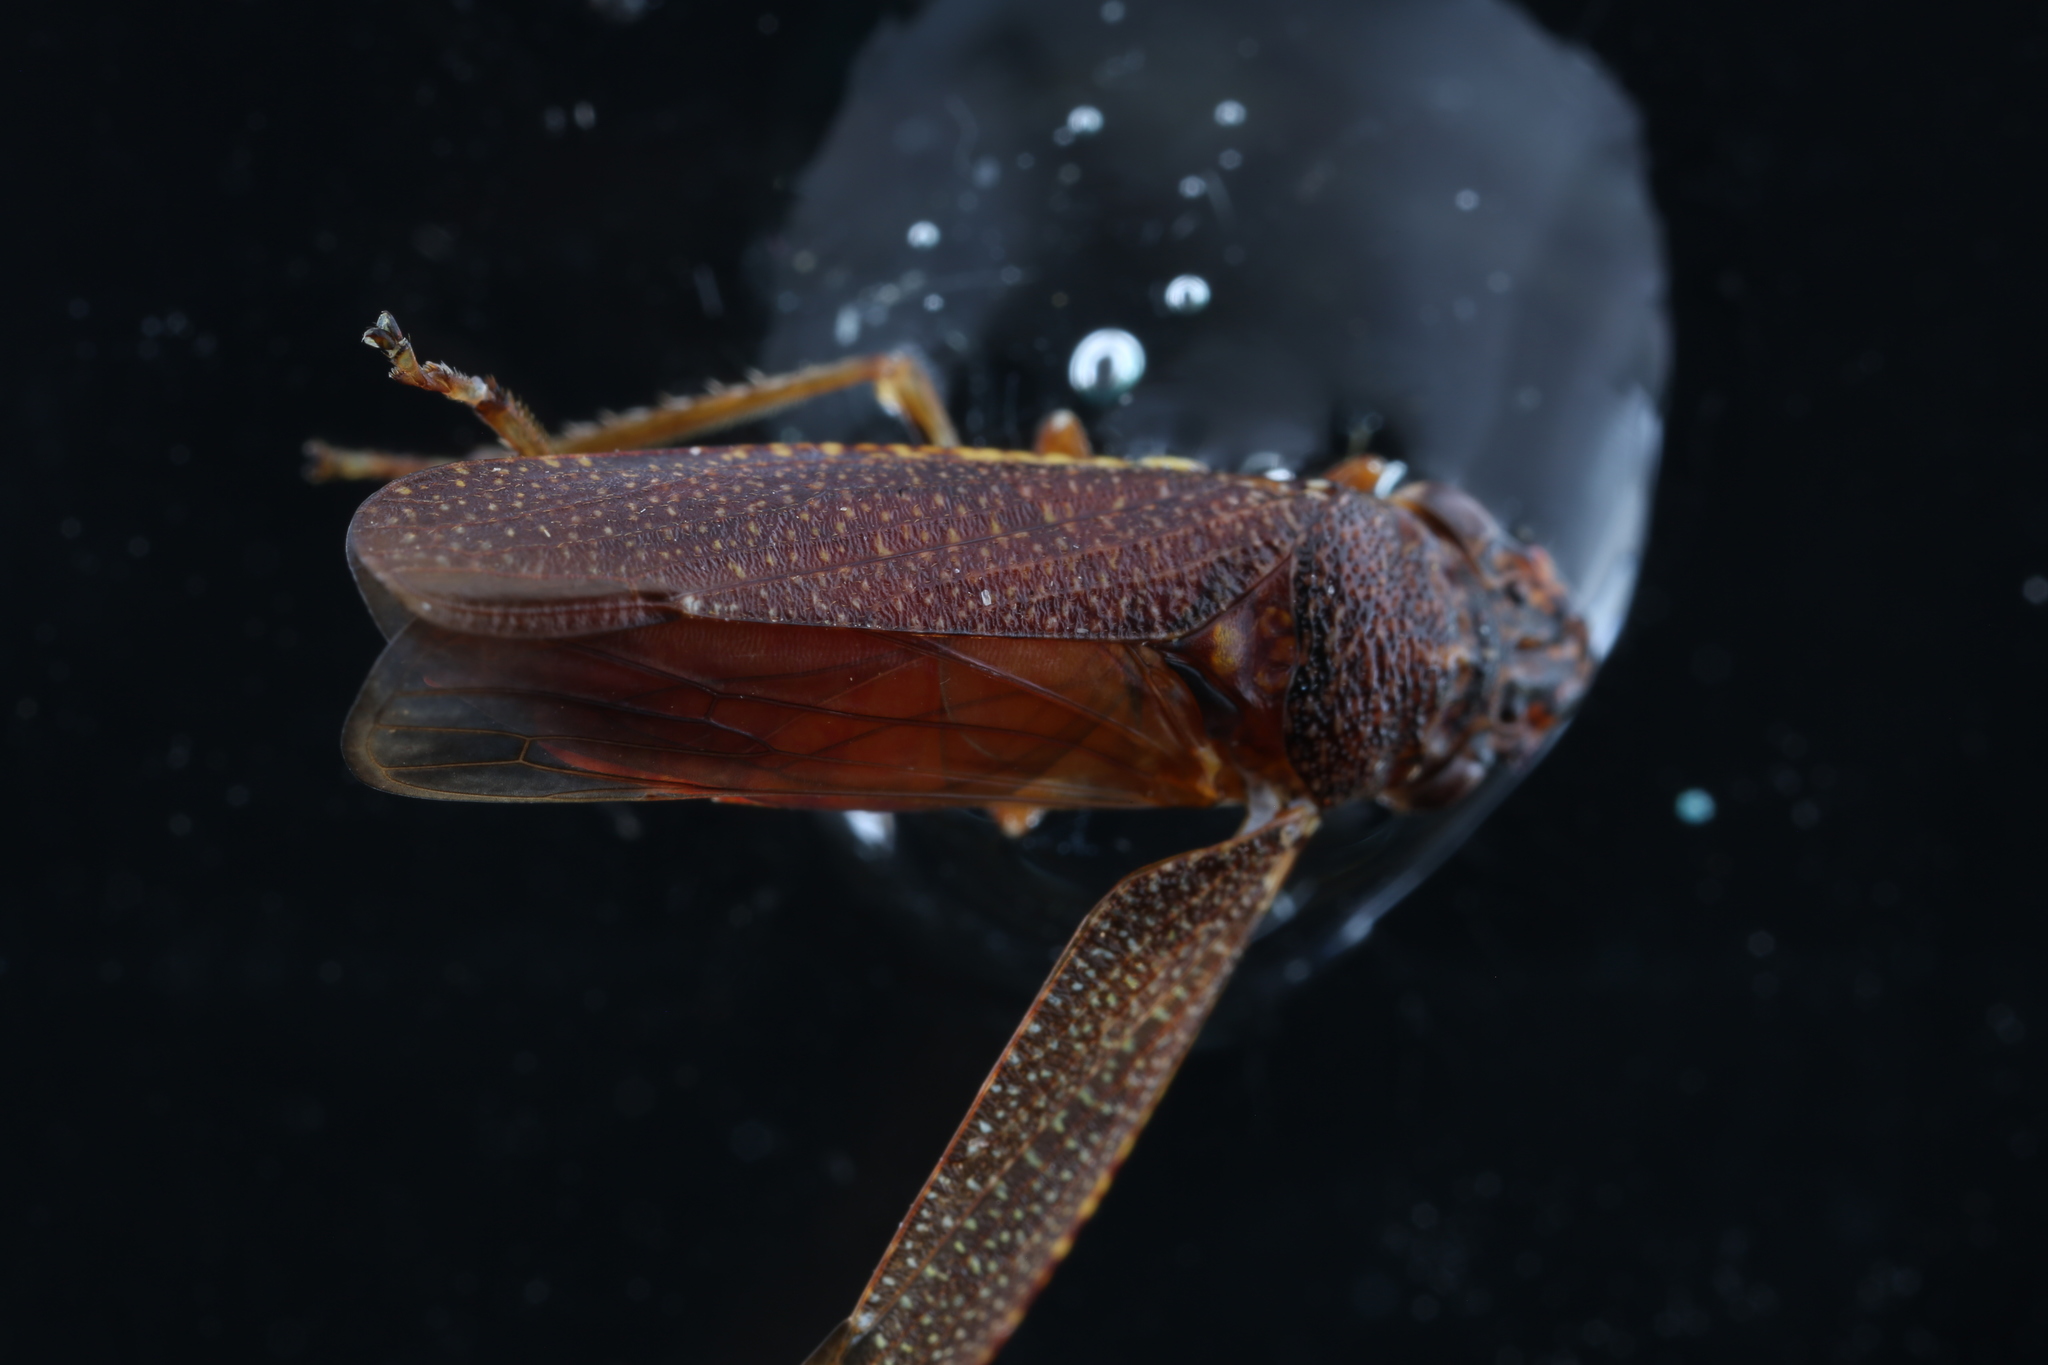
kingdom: Animalia
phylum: Arthropoda
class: Insecta
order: Hemiptera
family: Cicadellidae
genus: Paraulacizes
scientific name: Paraulacizes irrorata
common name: Speckled sharpshooter
